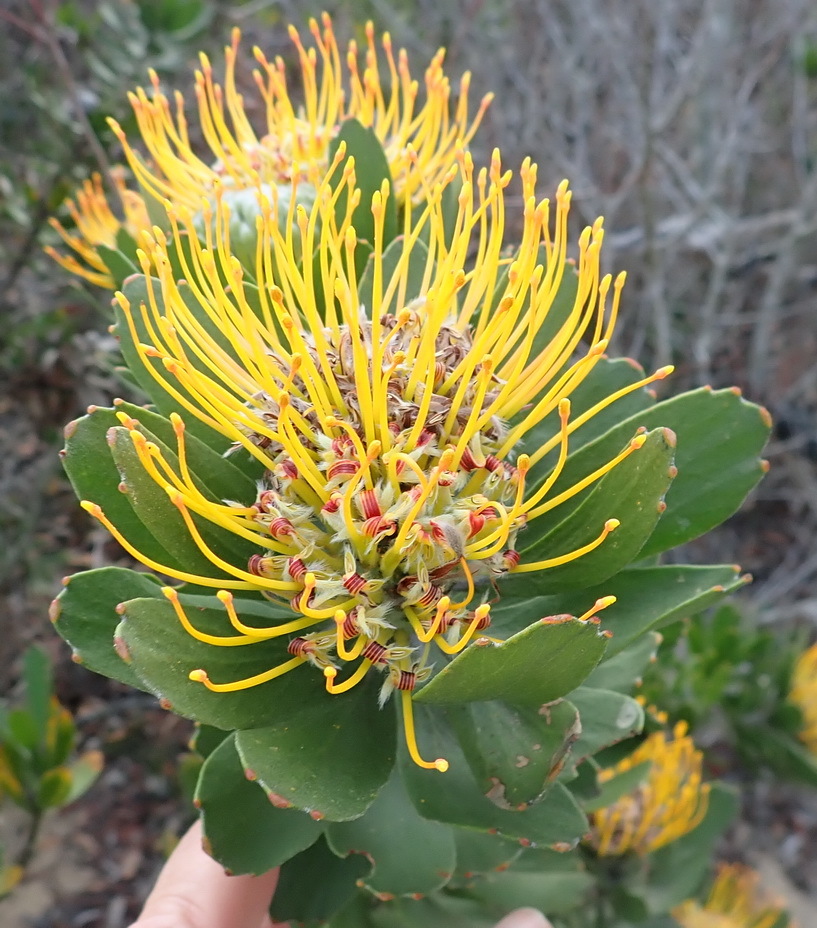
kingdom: Plantae
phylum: Tracheophyta
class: Magnoliopsida
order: Proteales
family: Proteaceae
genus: Leucospermum
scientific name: Leucospermum praecox
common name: Mossel bay pincushion
